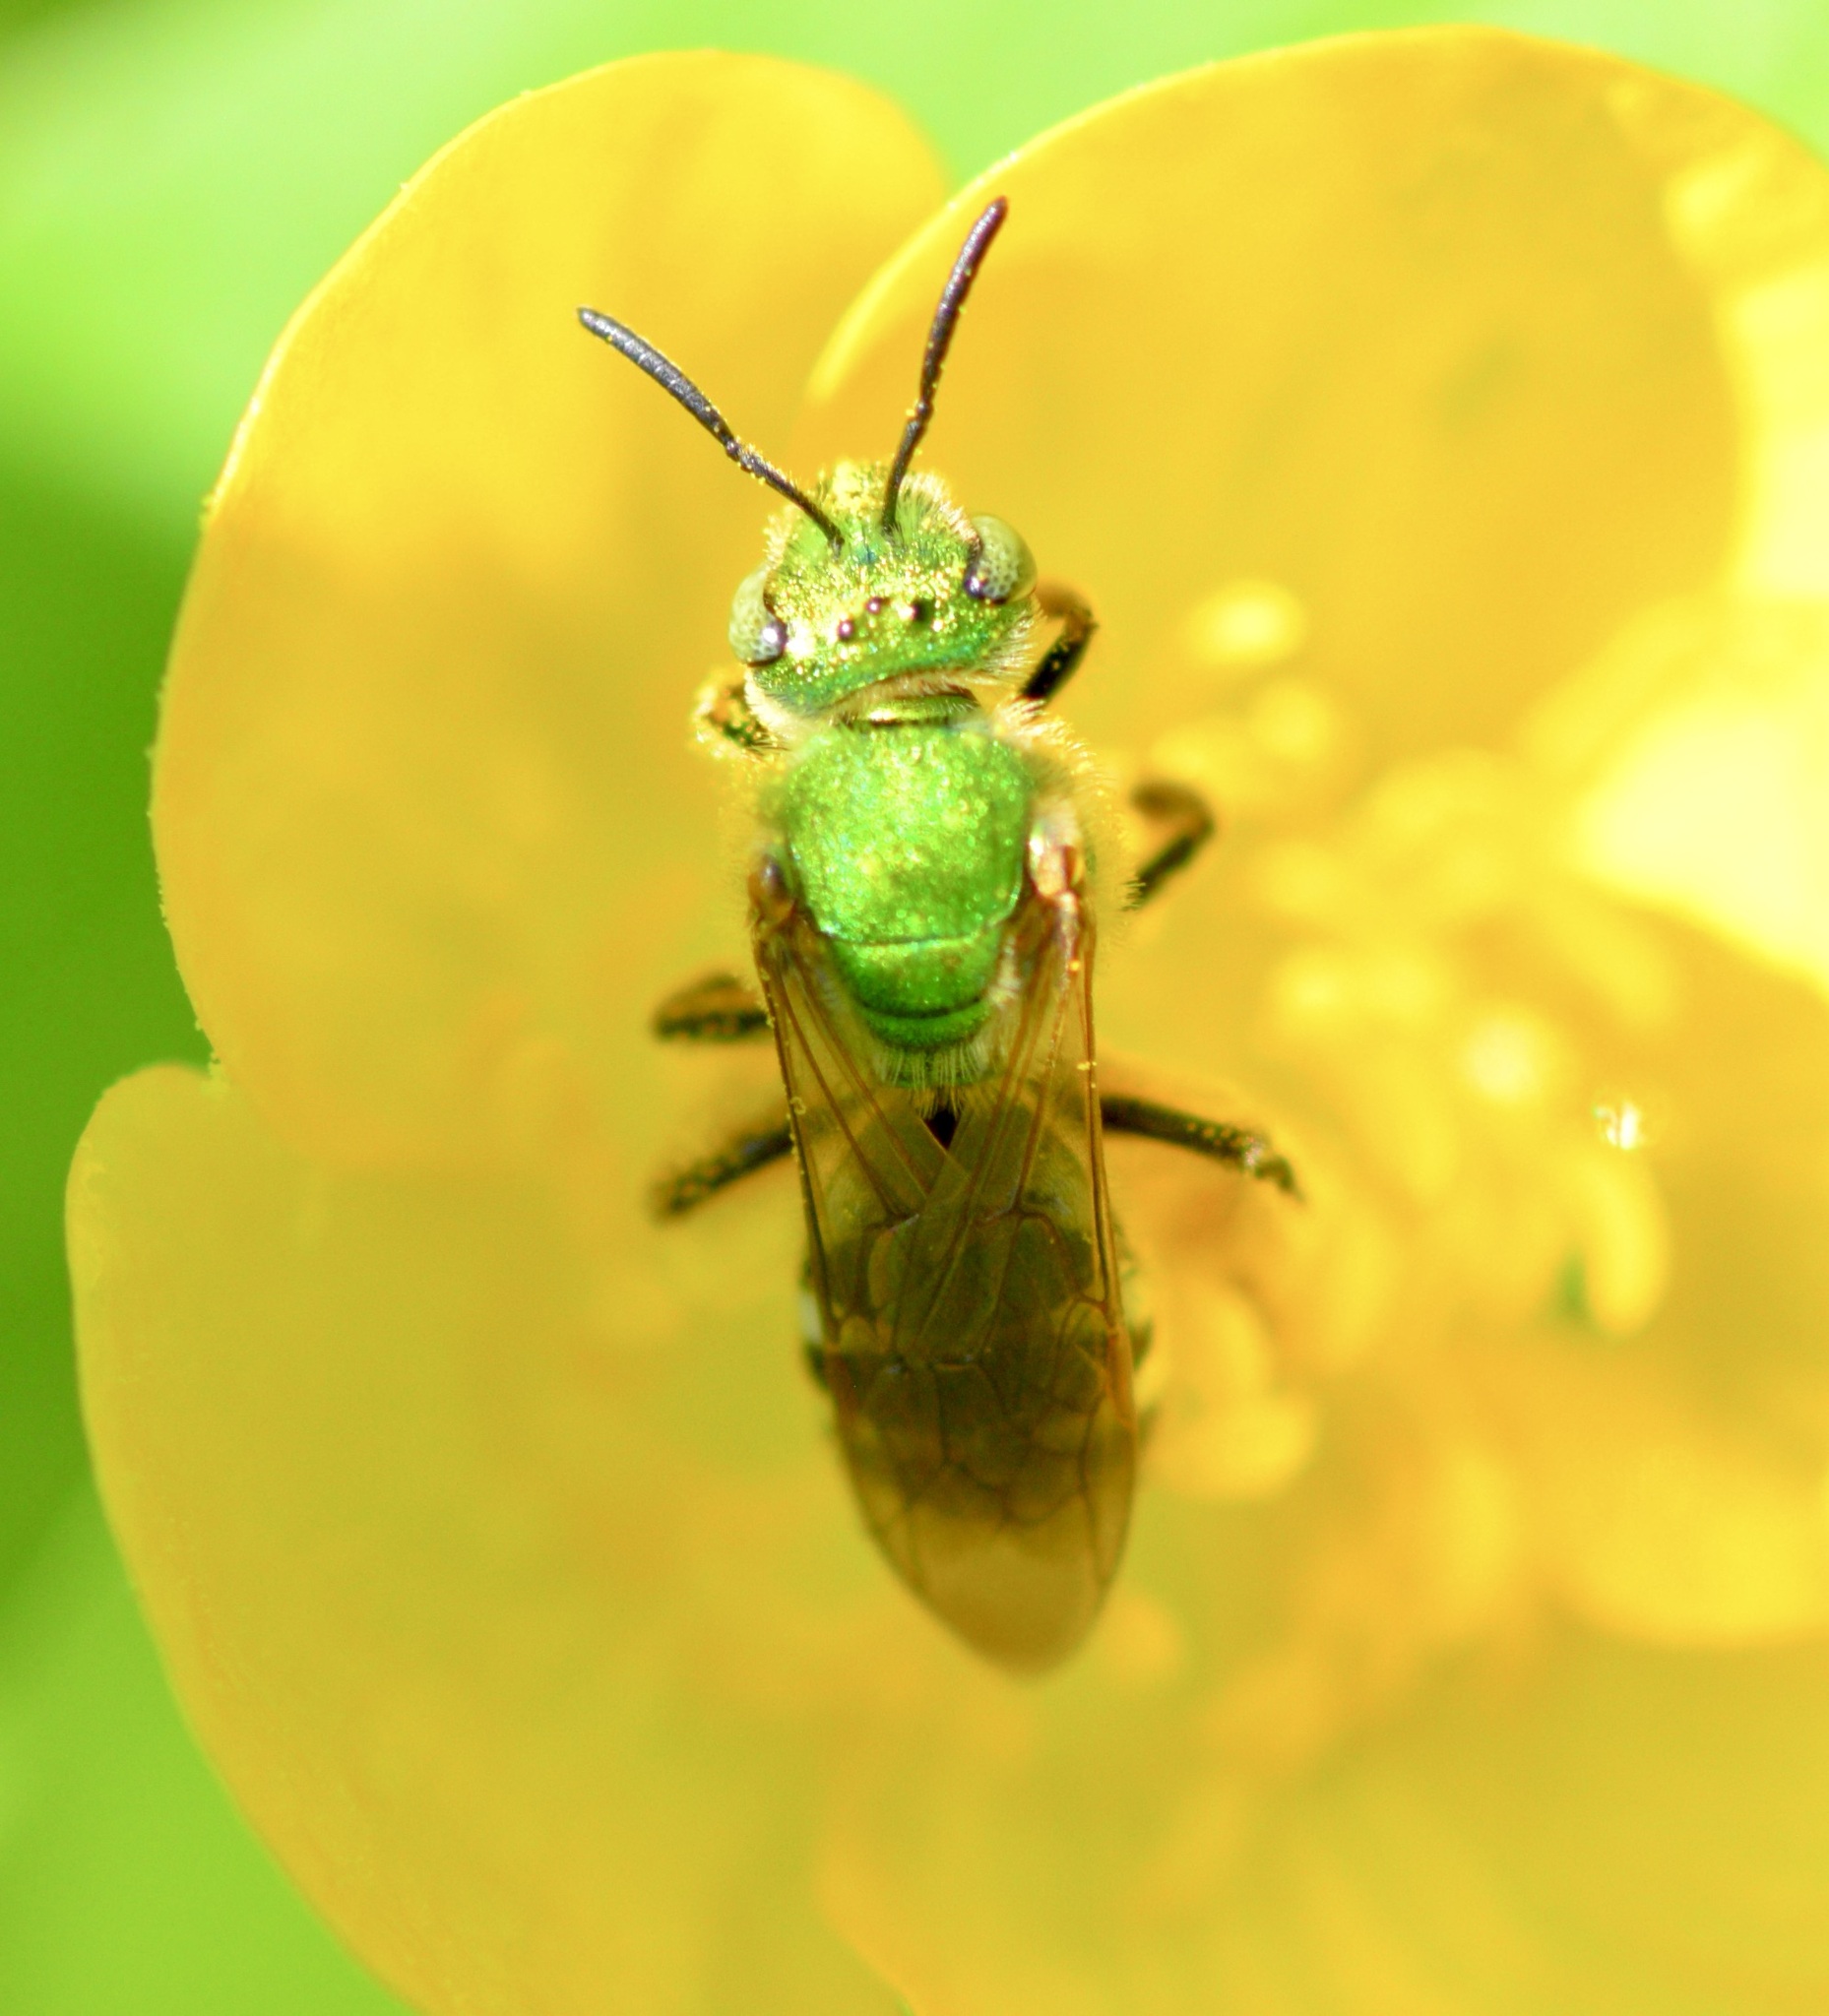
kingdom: Animalia
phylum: Arthropoda
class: Insecta
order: Hymenoptera
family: Halictidae
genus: Agapostemon
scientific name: Agapostemon virescens
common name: Bicolored striped sweat bee
